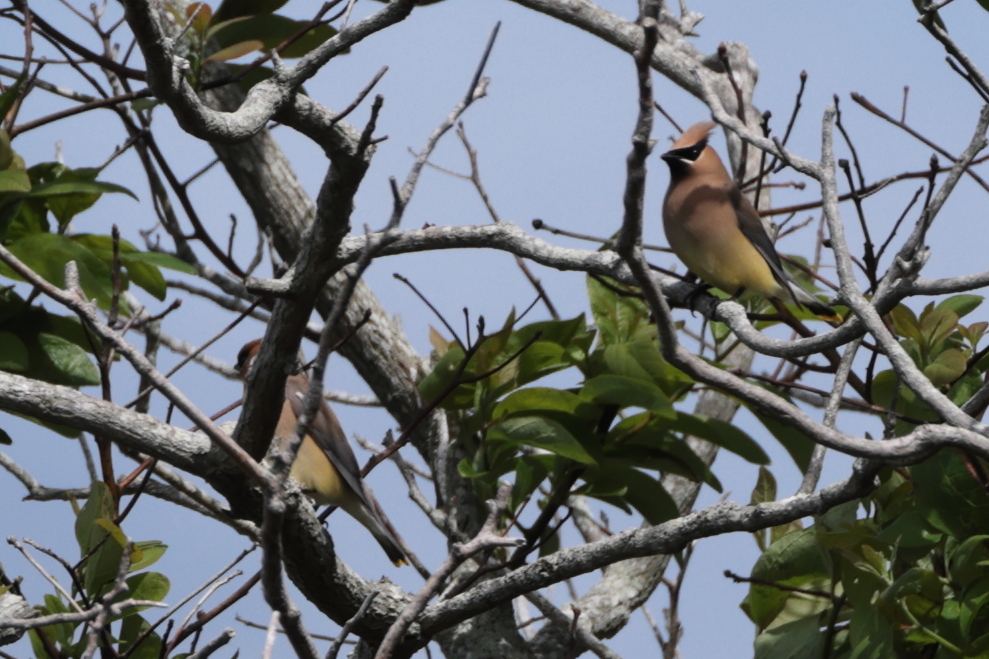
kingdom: Animalia
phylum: Chordata
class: Aves
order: Passeriformes
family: Bombycillidae
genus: Bombycilla
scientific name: Bombycilla cedrorum
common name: Cedar waxwing
